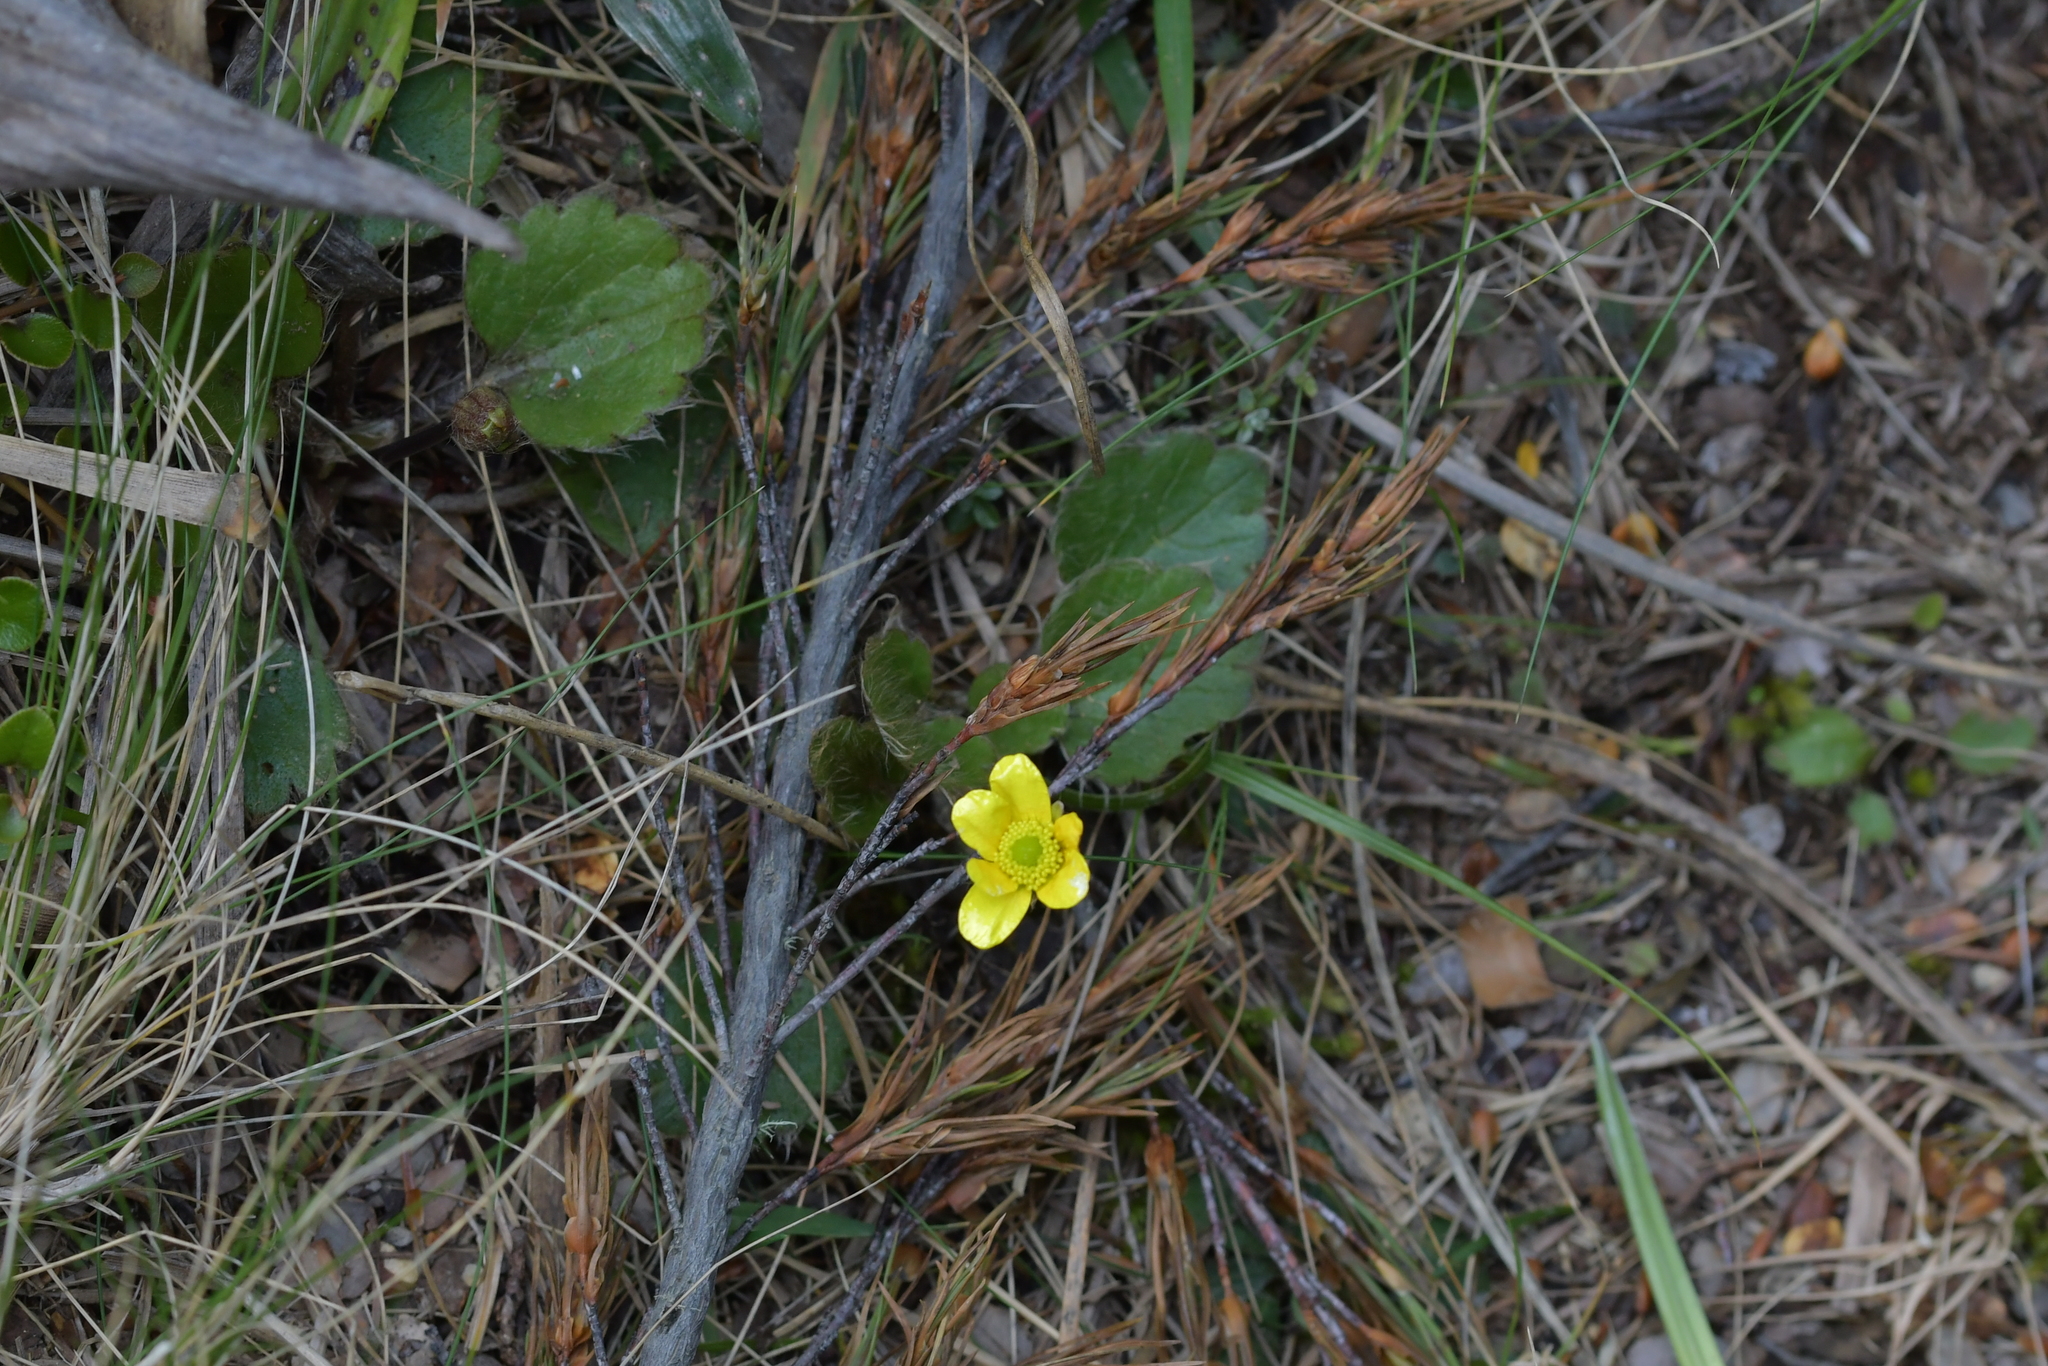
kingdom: Plantae
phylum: Tracheophyta
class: Magnoliopsida
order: Ranunculales
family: Ranunculaceae
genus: Ranunculus
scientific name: Ranunculus insignis
